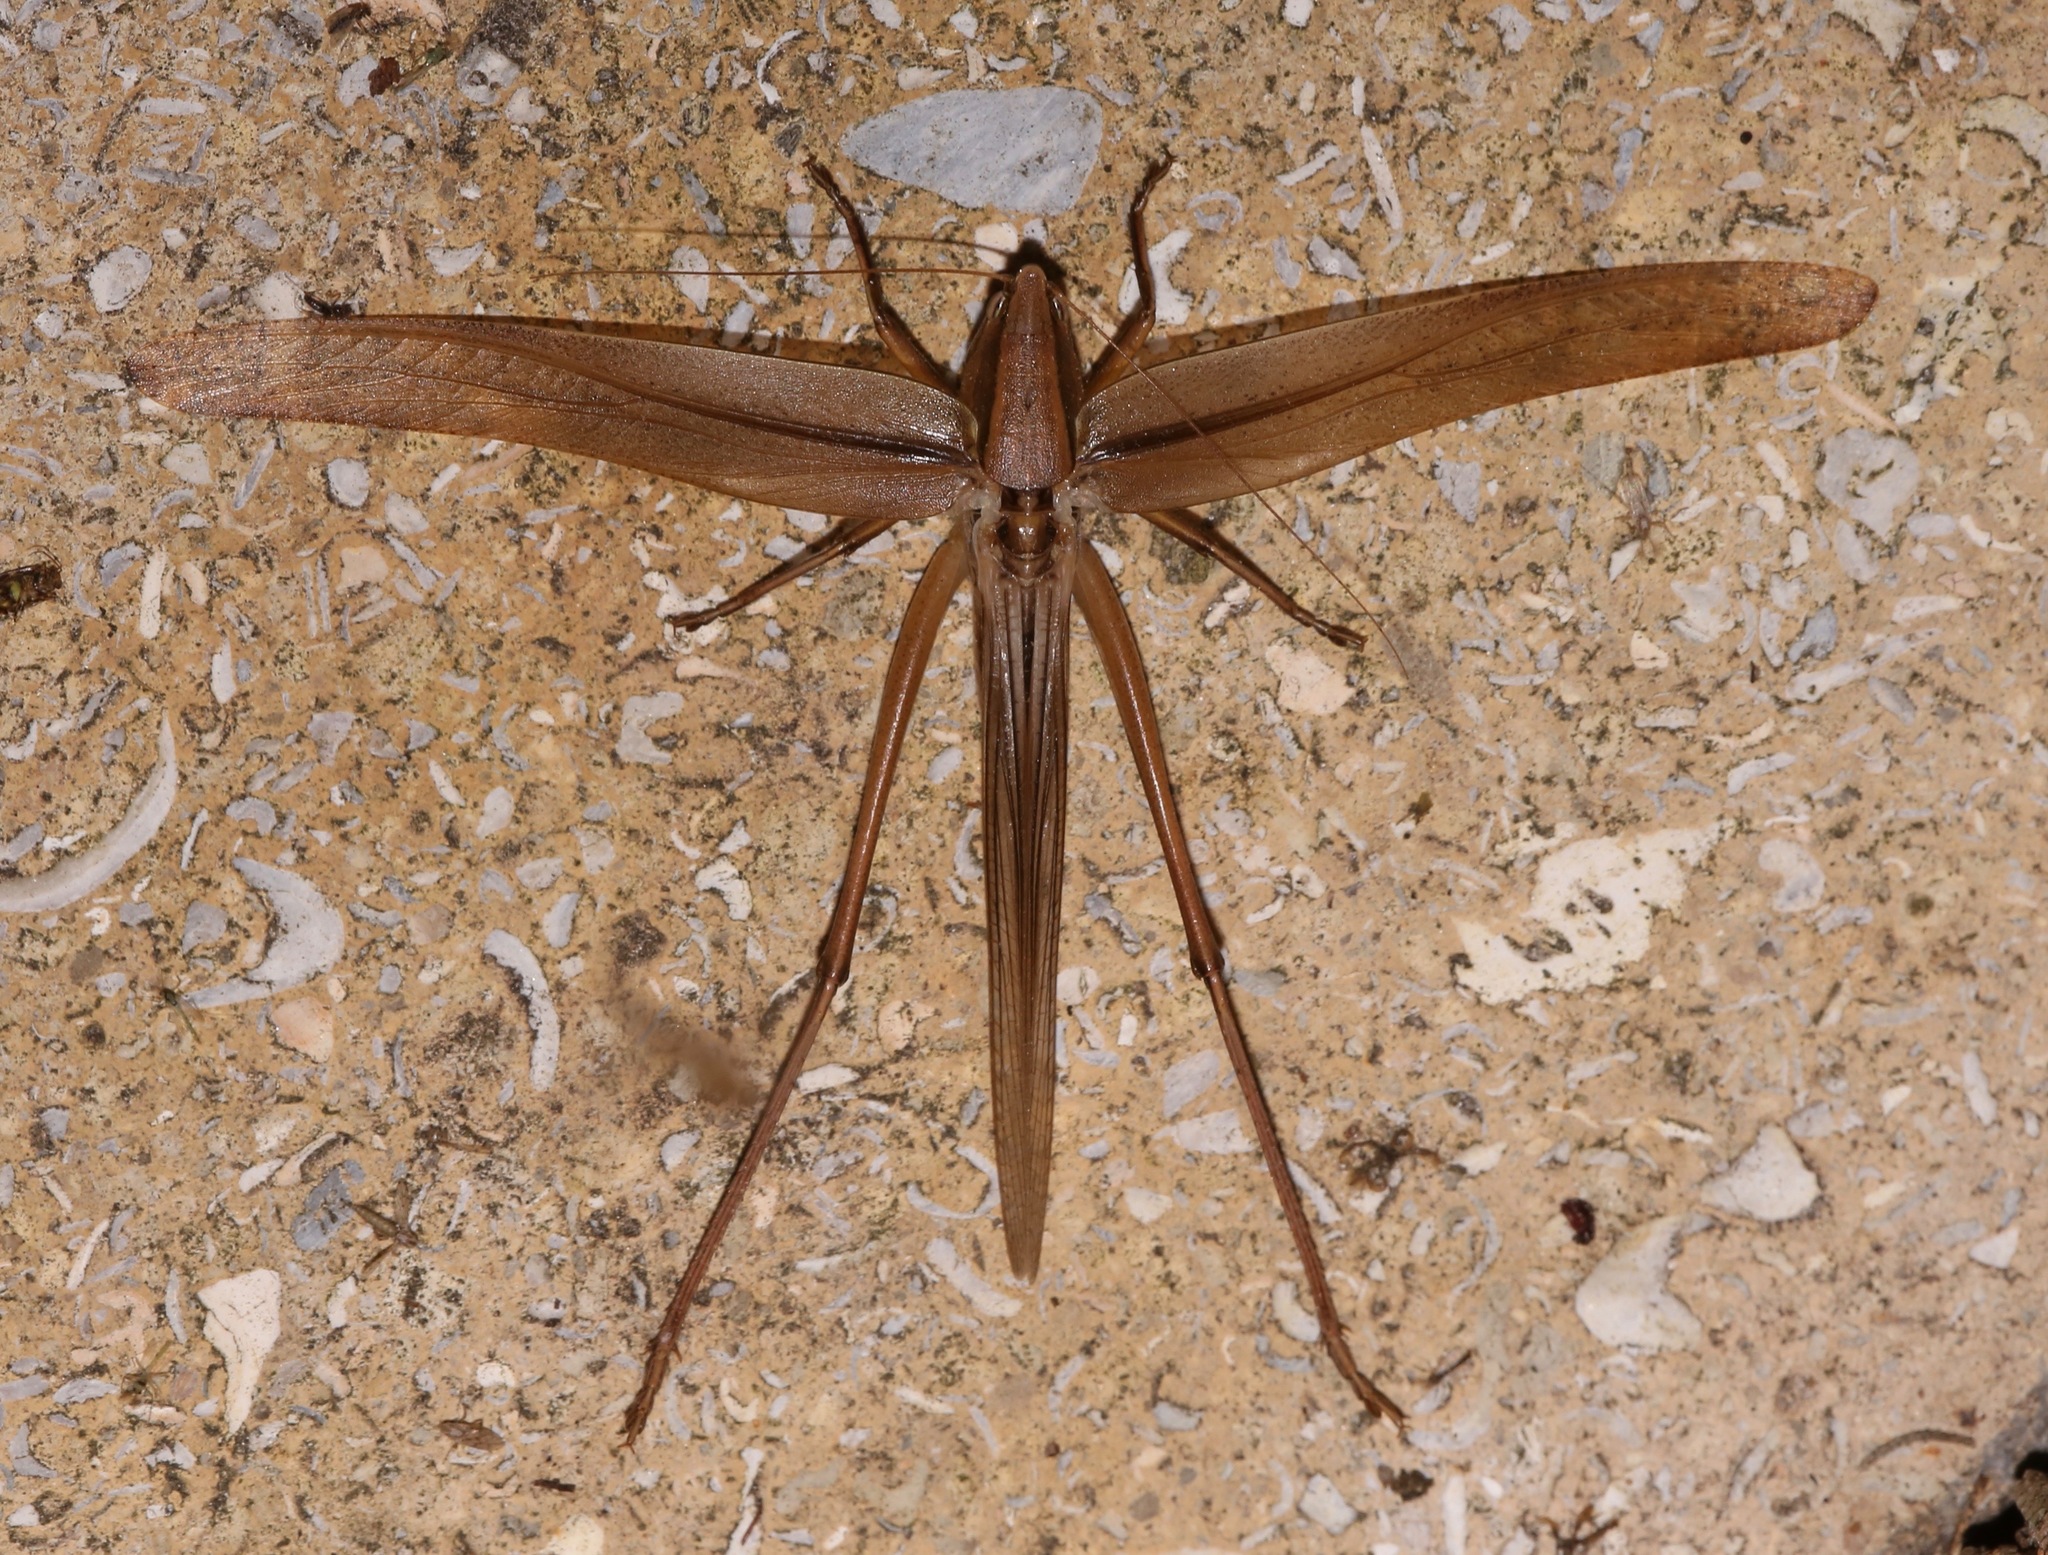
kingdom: Animalia
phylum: Arthropoda
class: Insecta
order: Orthoptera
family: Tettigoniidae
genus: Neoconocephalus
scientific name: Neoconocephalus triops
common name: Broad-tipped conehead
